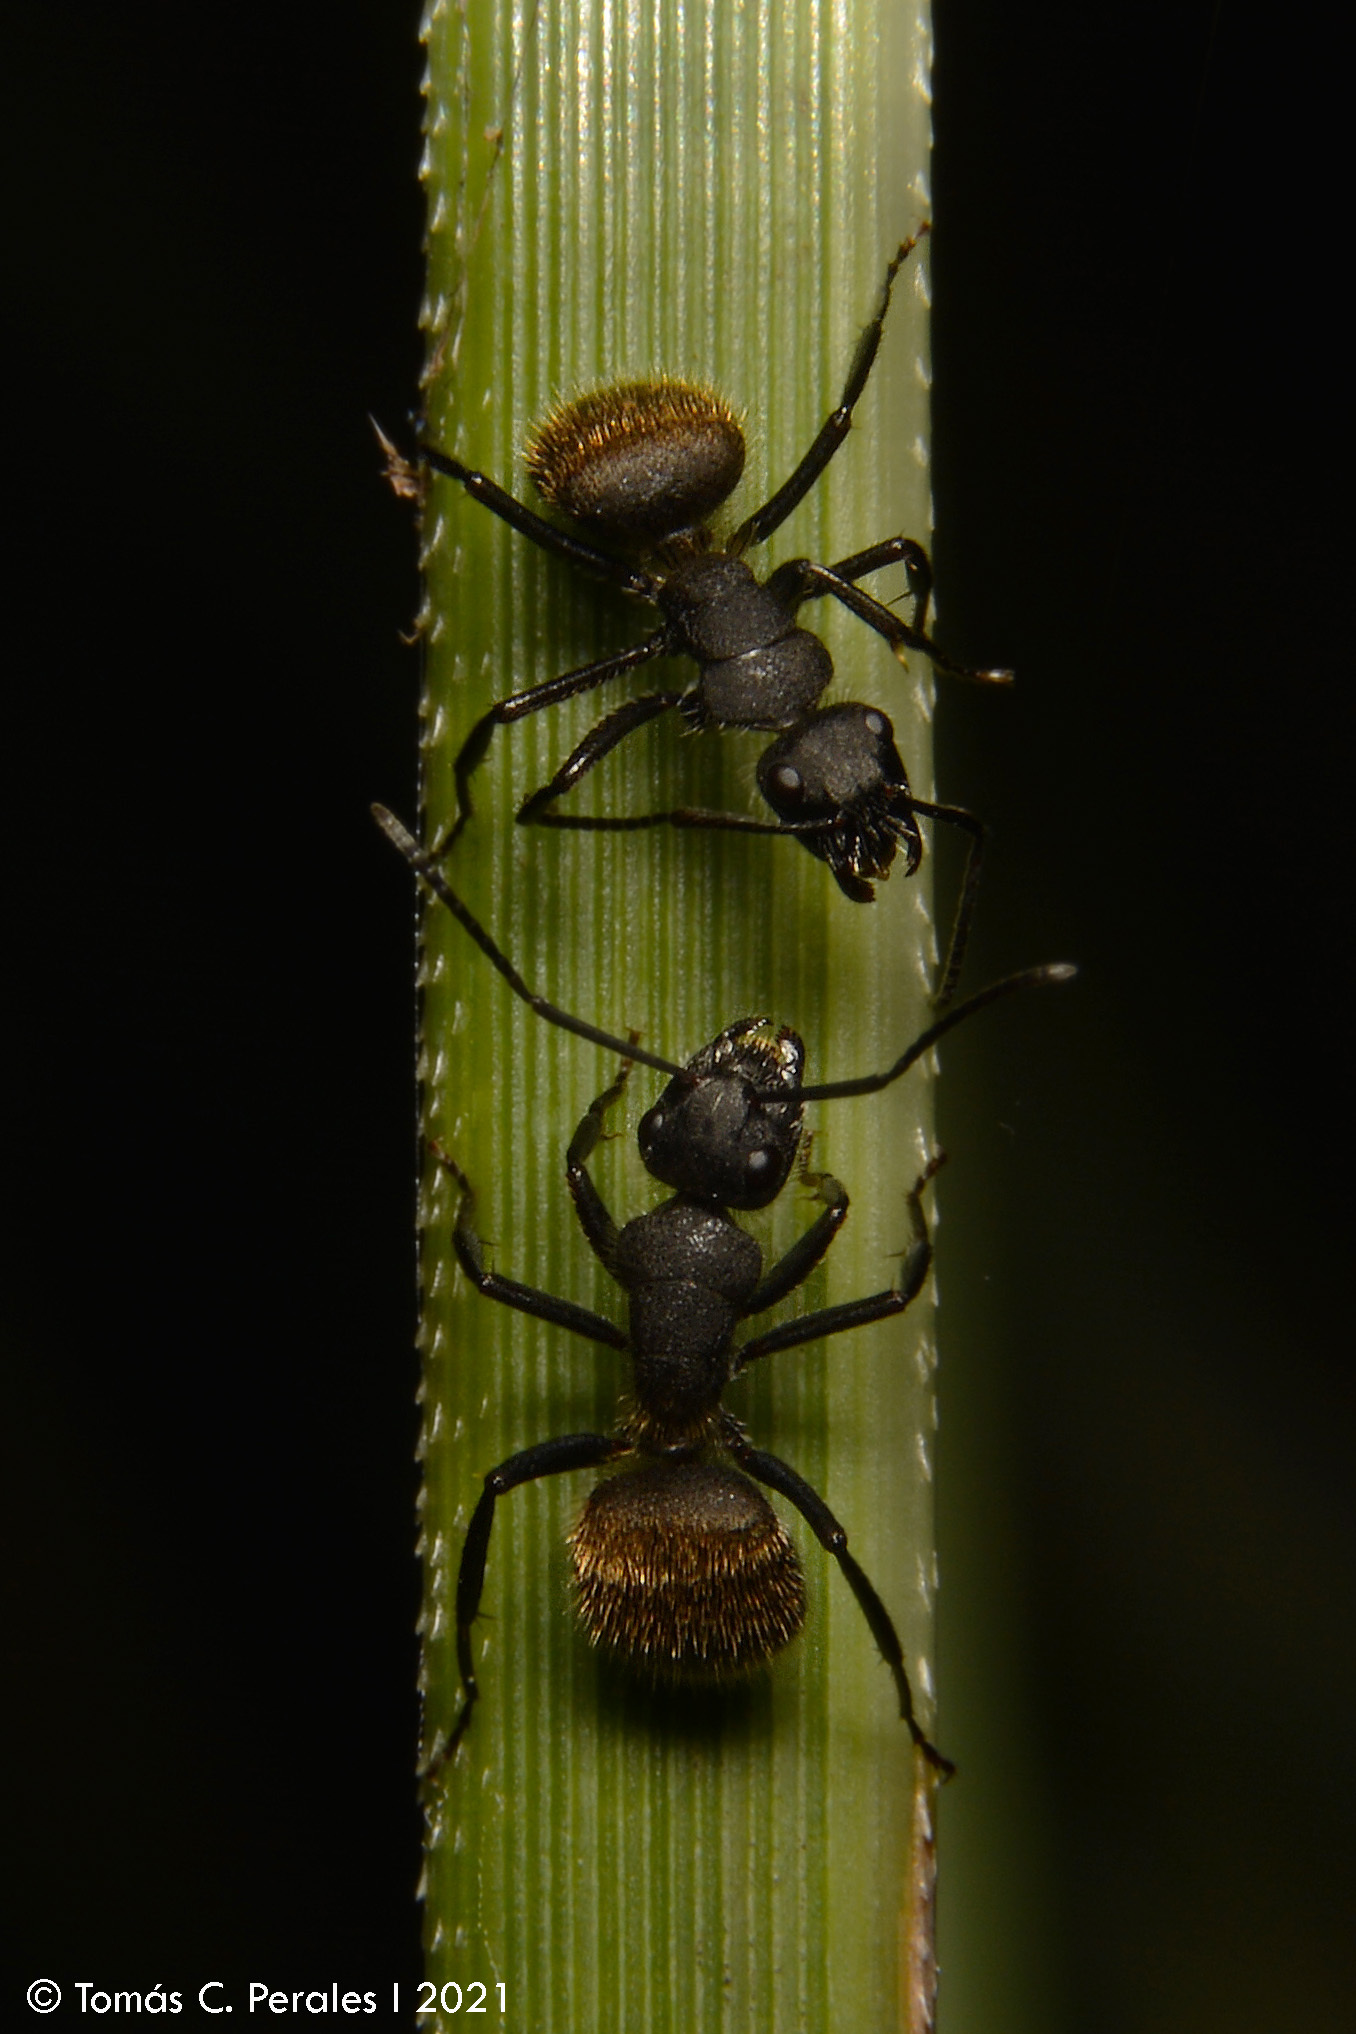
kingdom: Animalia
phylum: Arthropoda
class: Insecta
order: Hymenoptera
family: Formicidae
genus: Camponotus
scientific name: Camponotus mus
